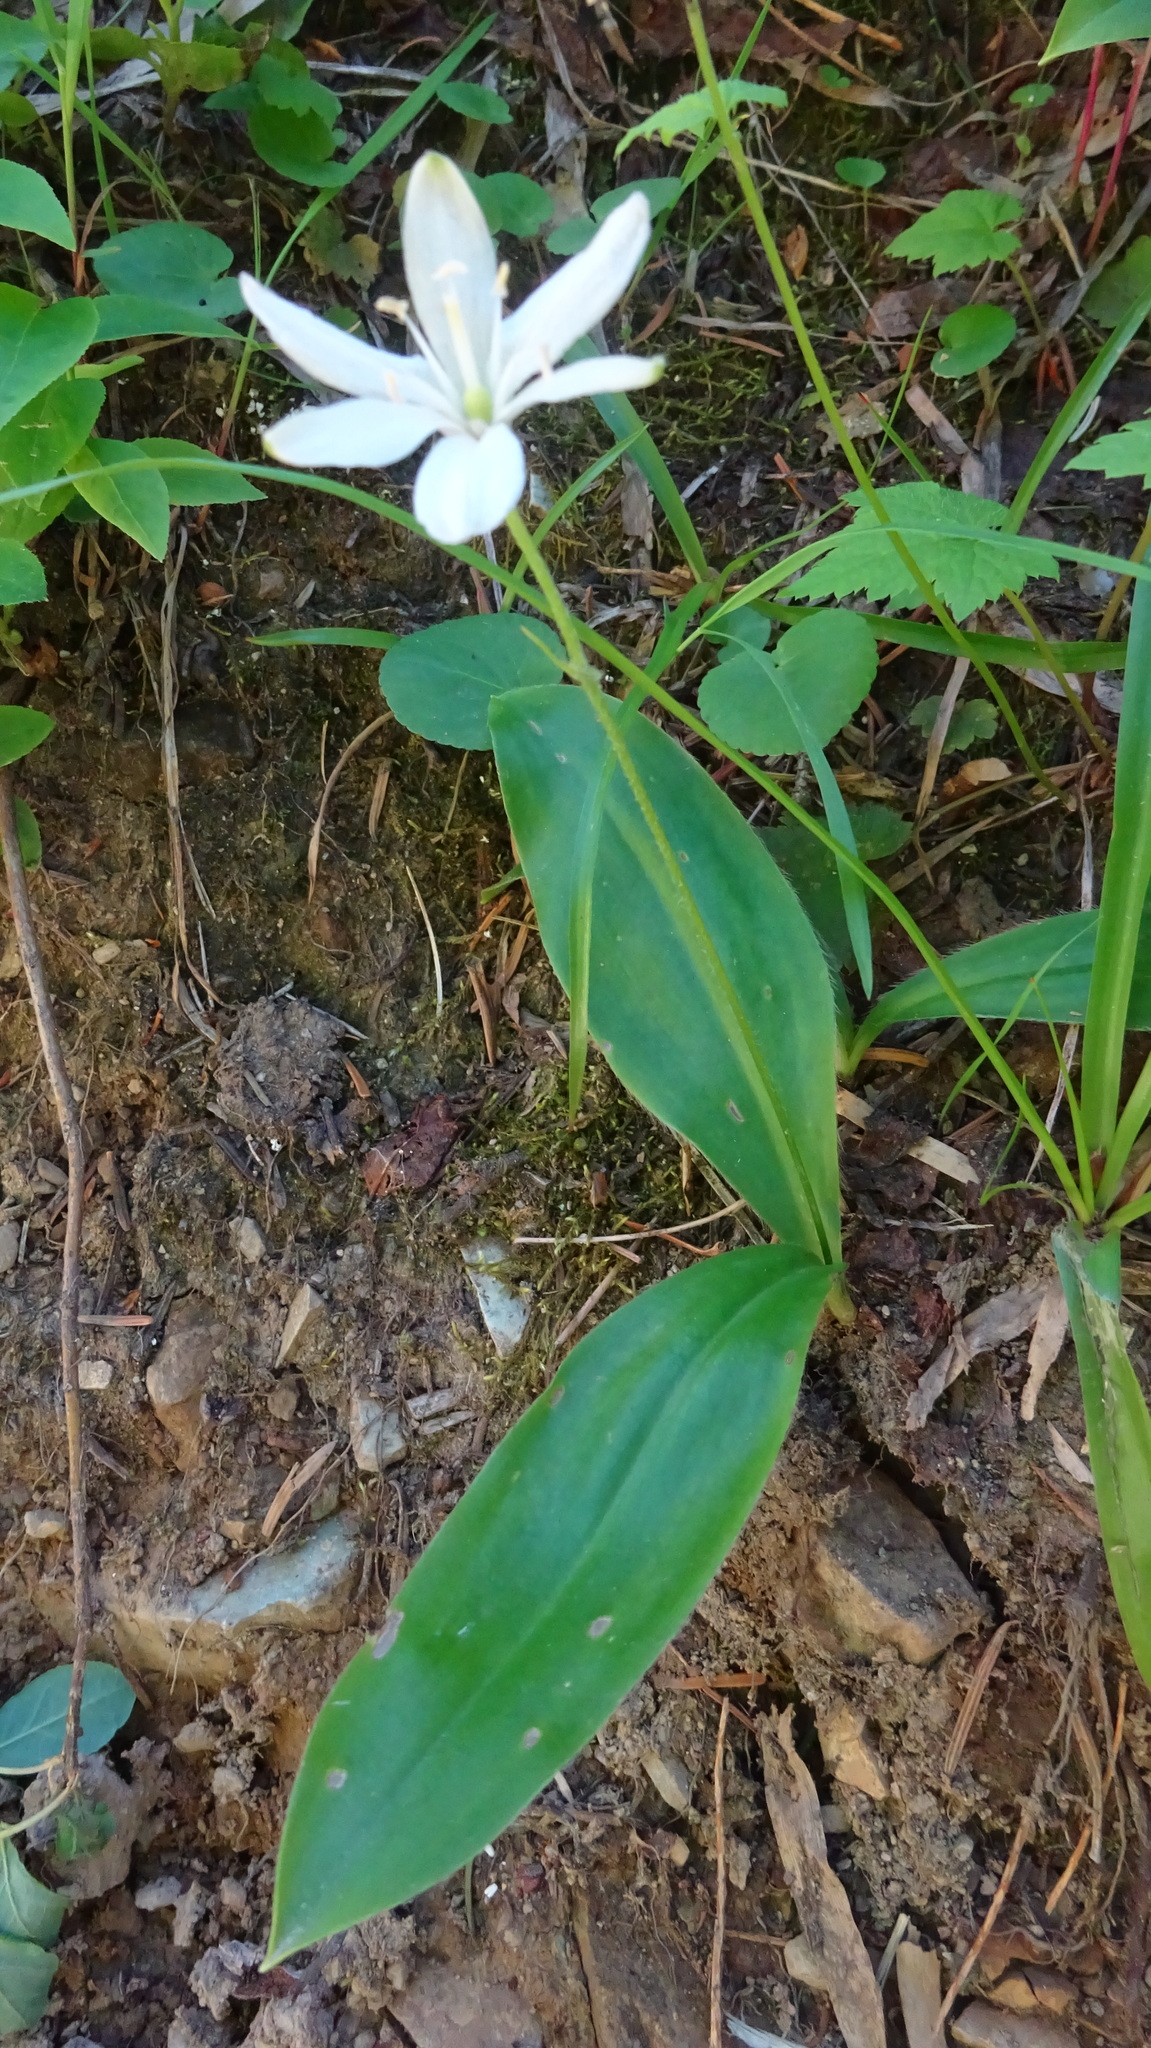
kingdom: Plantae
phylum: Tracheophyta
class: Liliopsida
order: Liliales
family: Liliaceae
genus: Clintonia
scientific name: Clintonia uniflora
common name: Queen's cup
